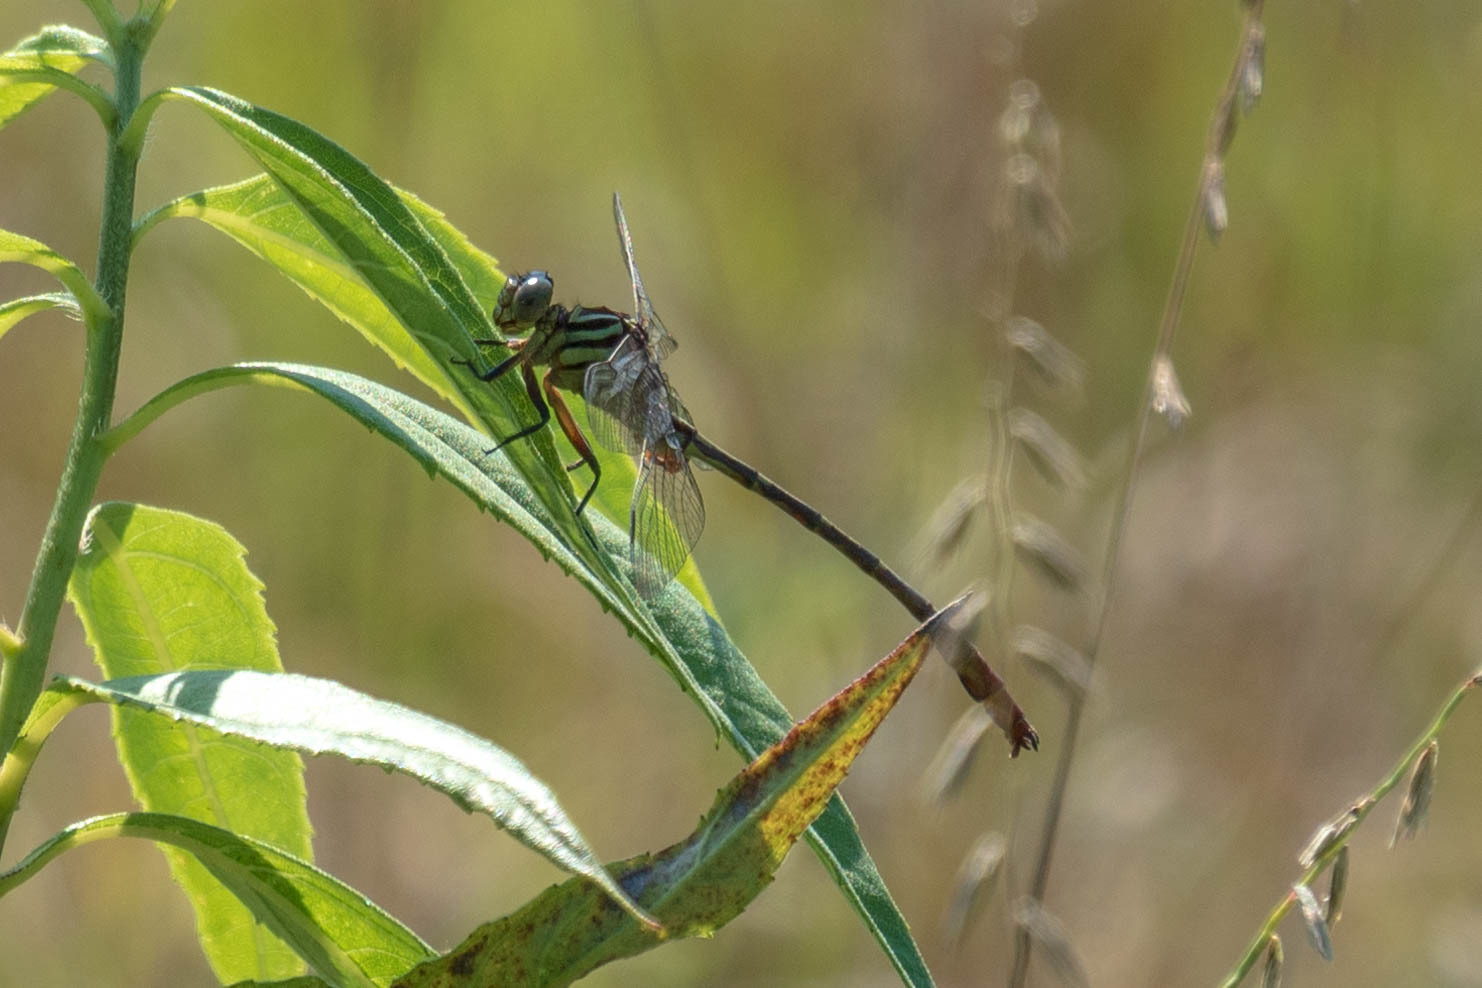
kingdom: Animalia
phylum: Arthropoda
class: Insecta
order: Odonata
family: Gomphidae
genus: Stylurus
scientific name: Stylurus plagiatus
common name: Russet-tipped clubtail
